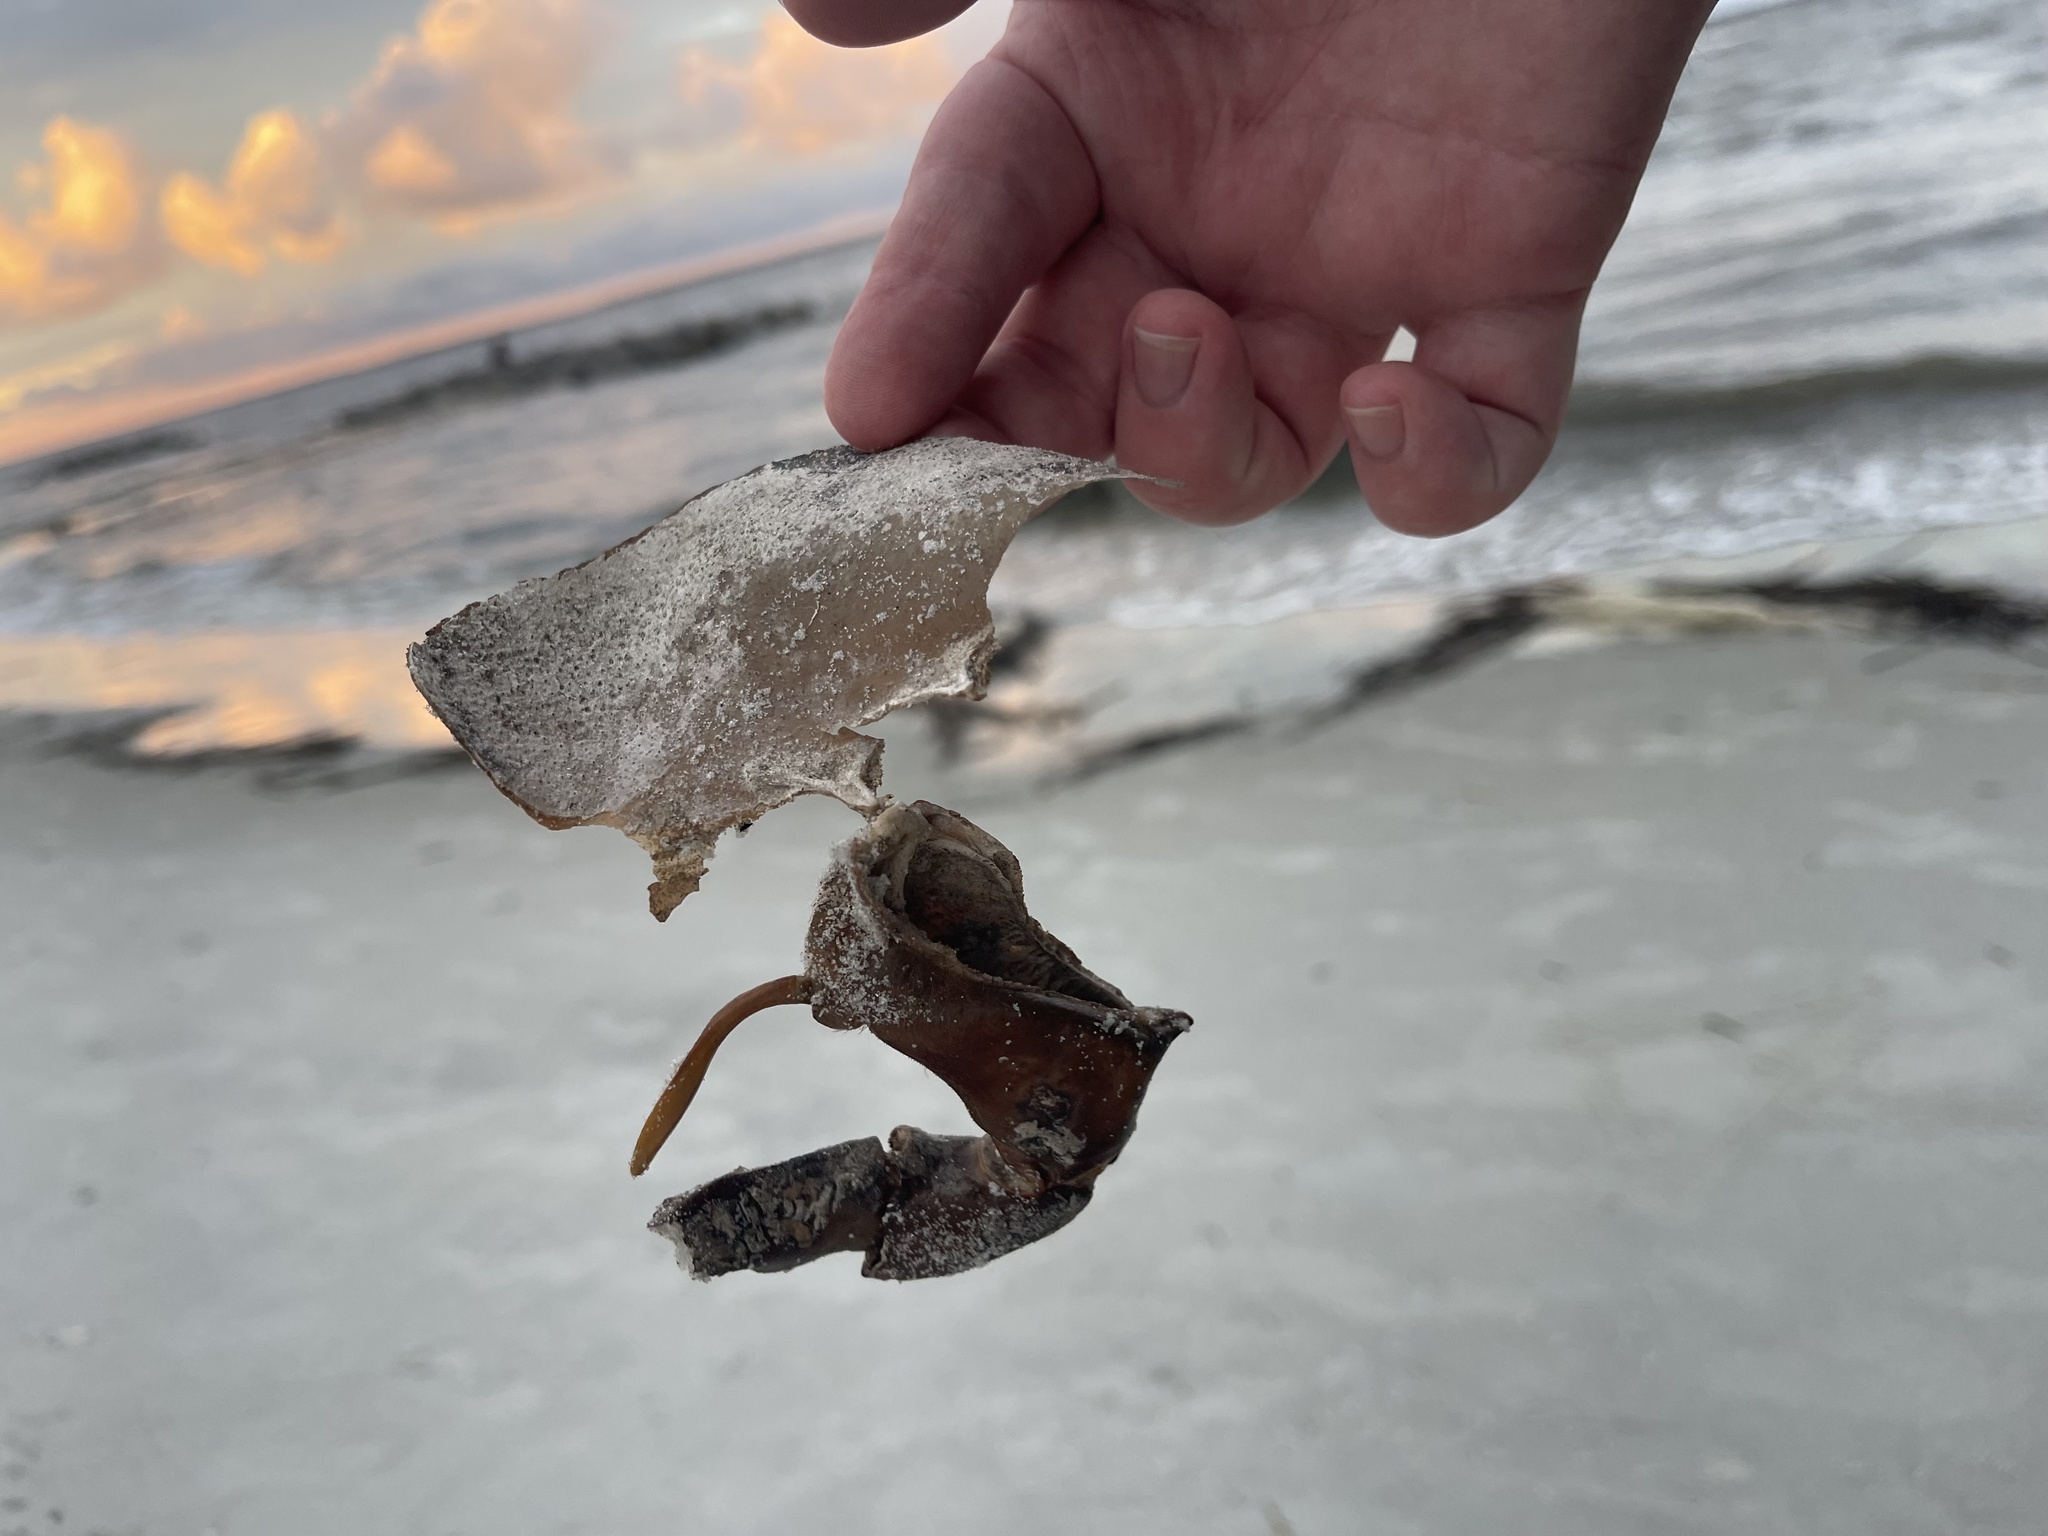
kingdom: Animalia
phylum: Arthropoda
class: Merostomata
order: Xiphosurida
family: Limulidae
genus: Limulus
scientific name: Limulus polyphemus
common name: Horseshoe crab
